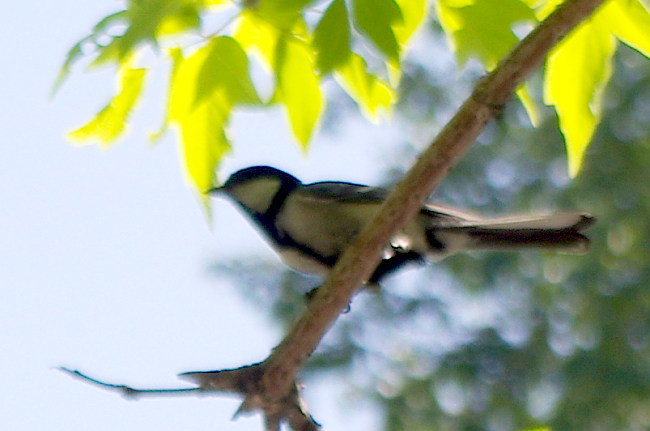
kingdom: Animalia
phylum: Chordata
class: Aves
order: Passeriformes
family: Paridae
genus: Parus
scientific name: Parus minor
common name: Japanese tit
